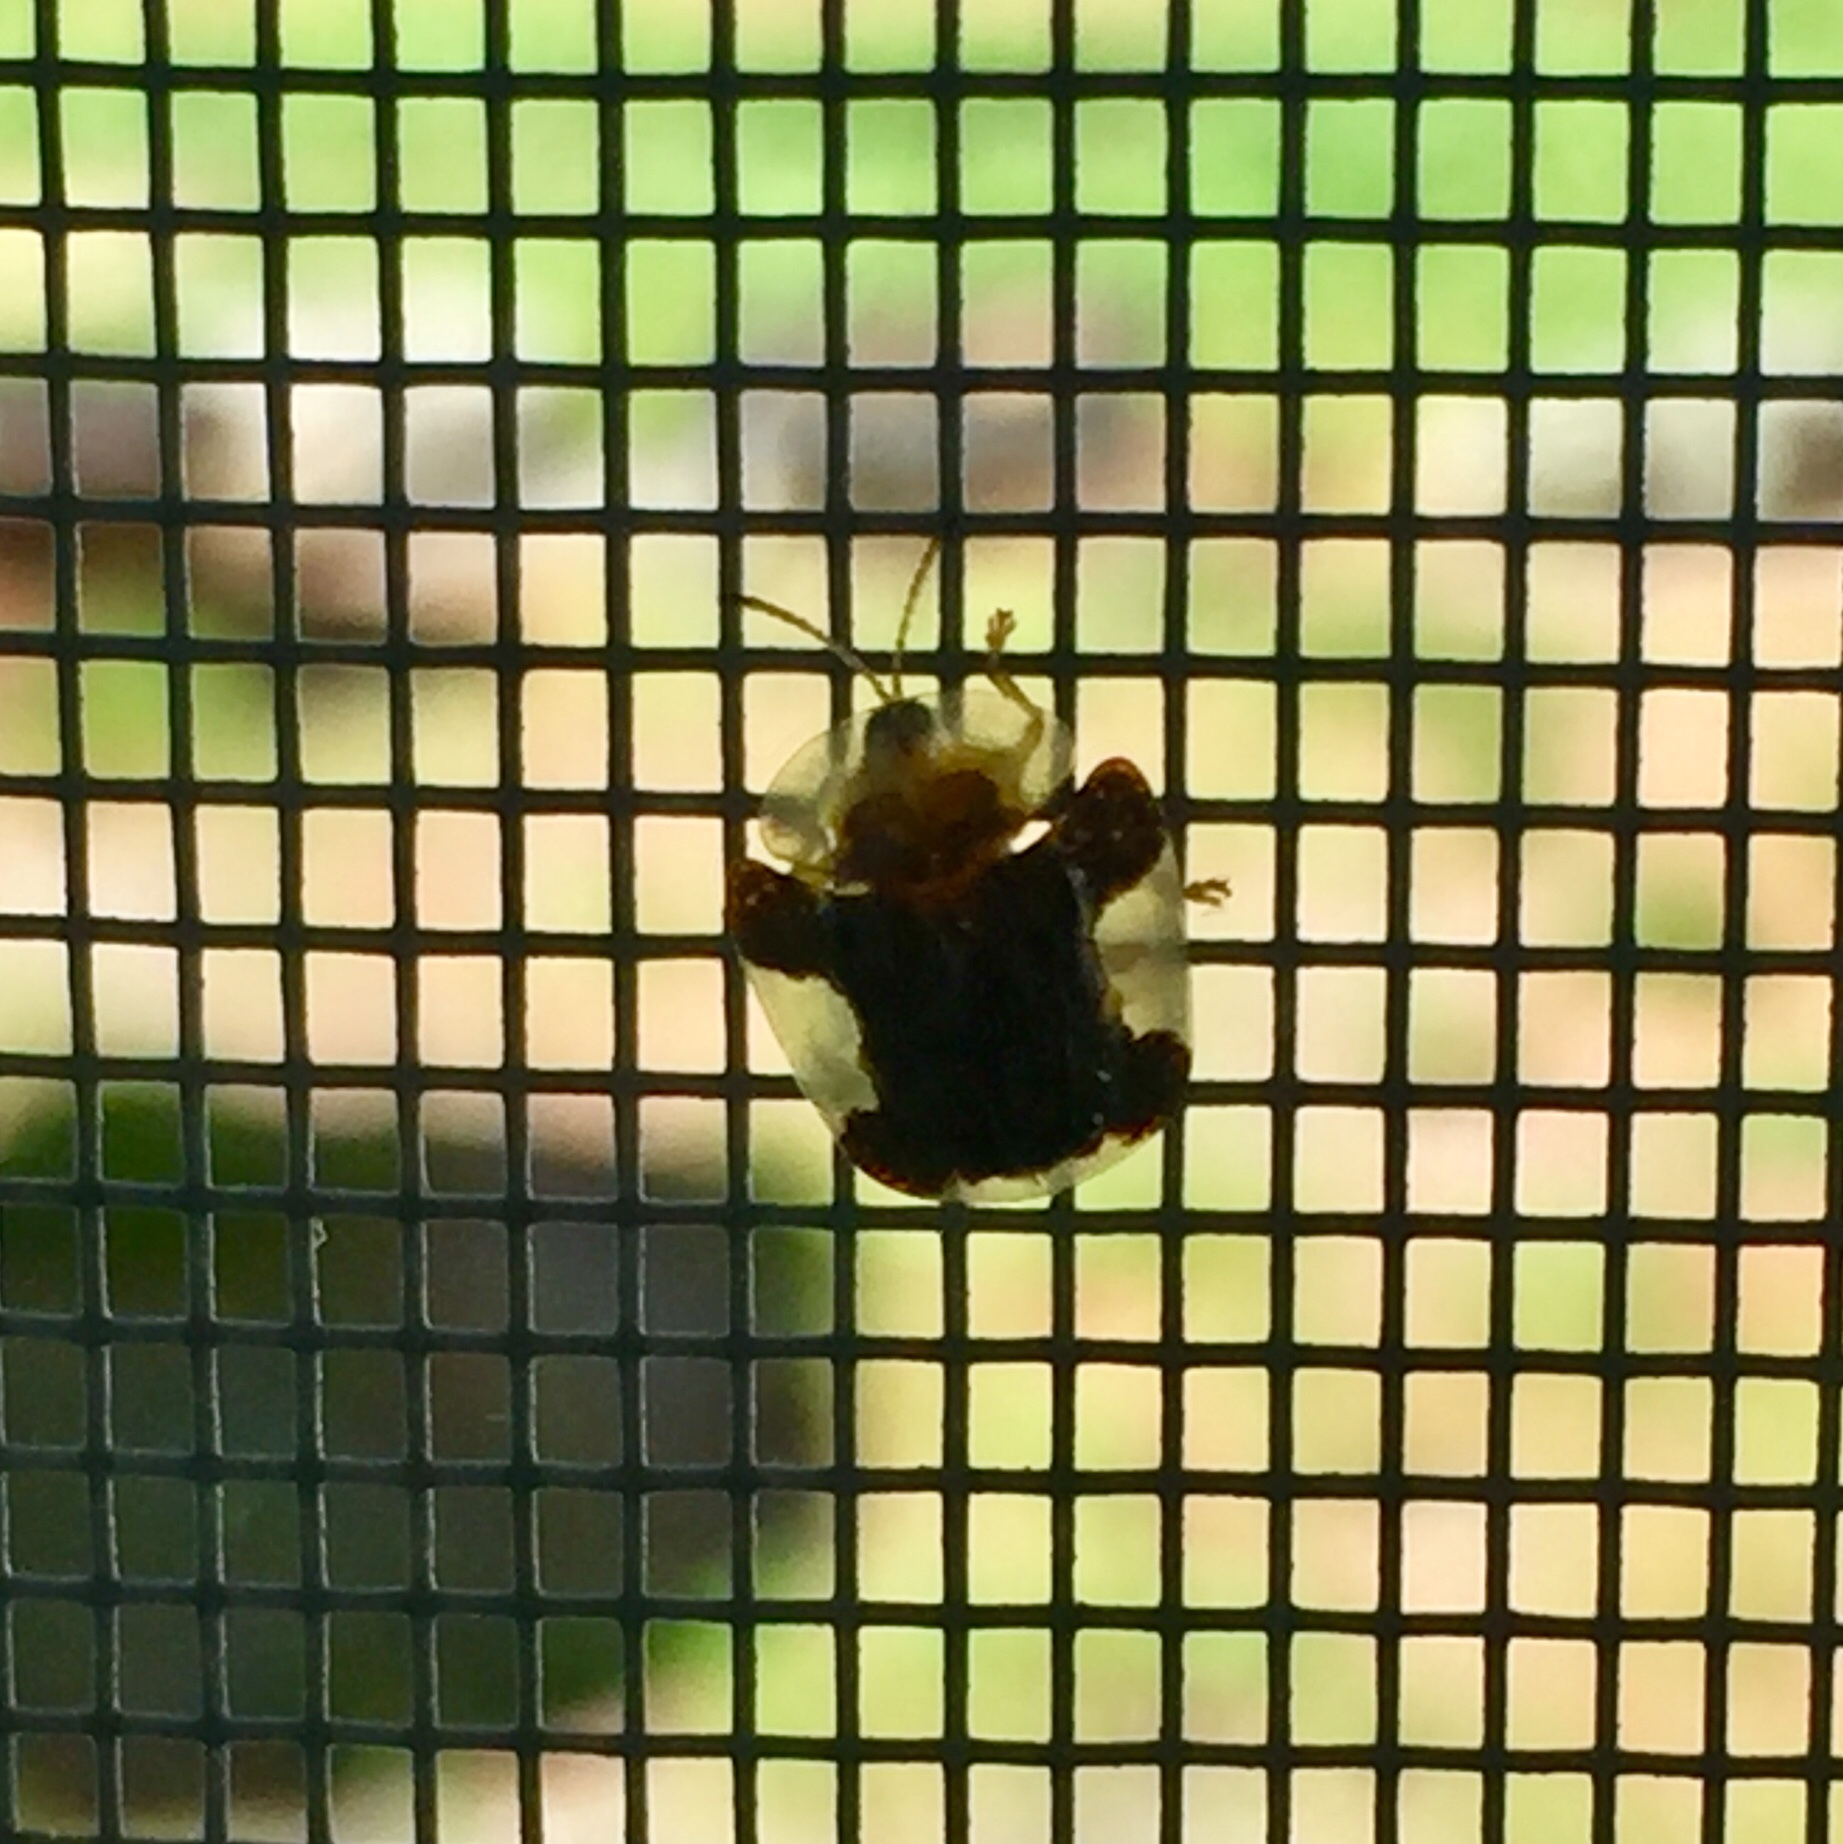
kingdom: Animalia
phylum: Arthropoda
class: Insecta
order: Coleoptera
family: Chrysomelidae
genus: Helocassis
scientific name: Helocassis clavata
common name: Clavate tortoise beetle
